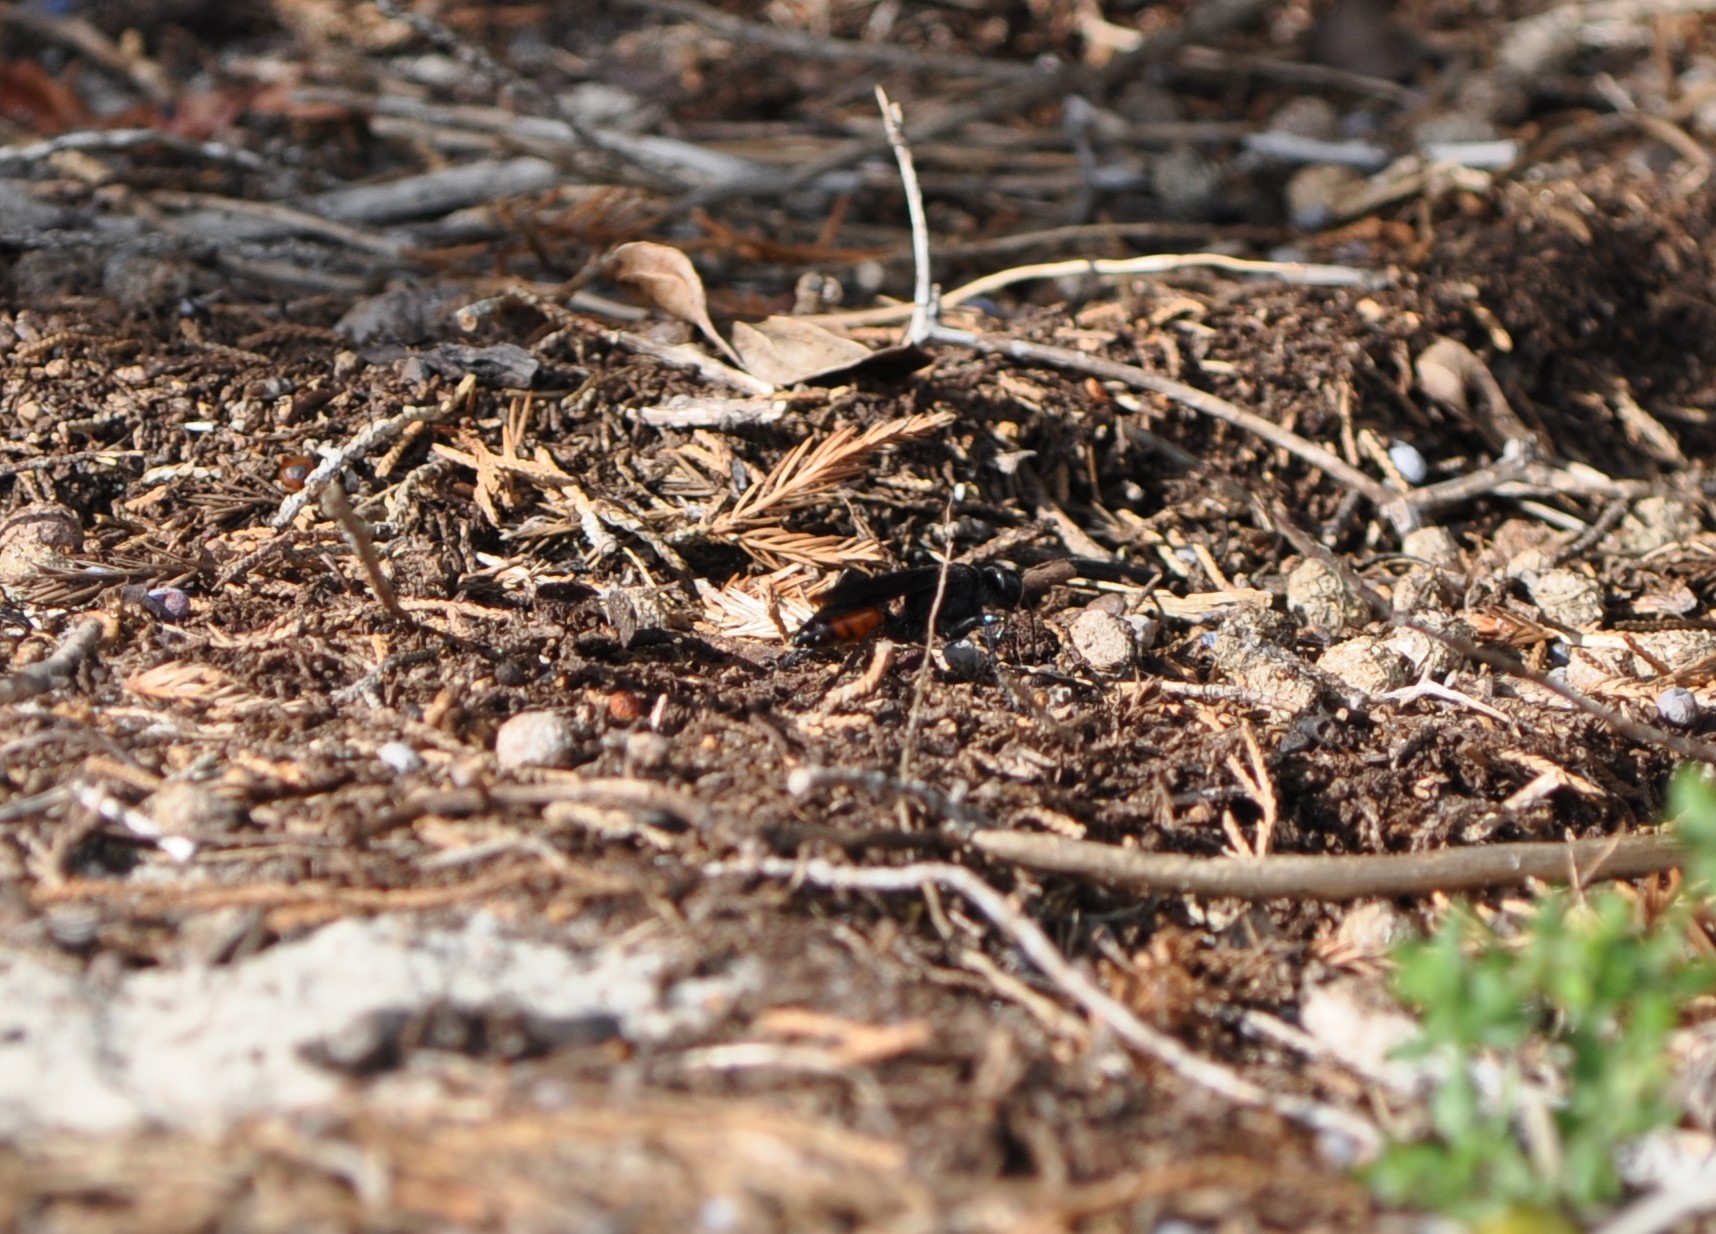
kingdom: Animalia
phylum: Arthropoda
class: Insecta
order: Hymenoptera
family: Sphecidae
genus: Palmodes
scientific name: Palmodes dimidiatus
